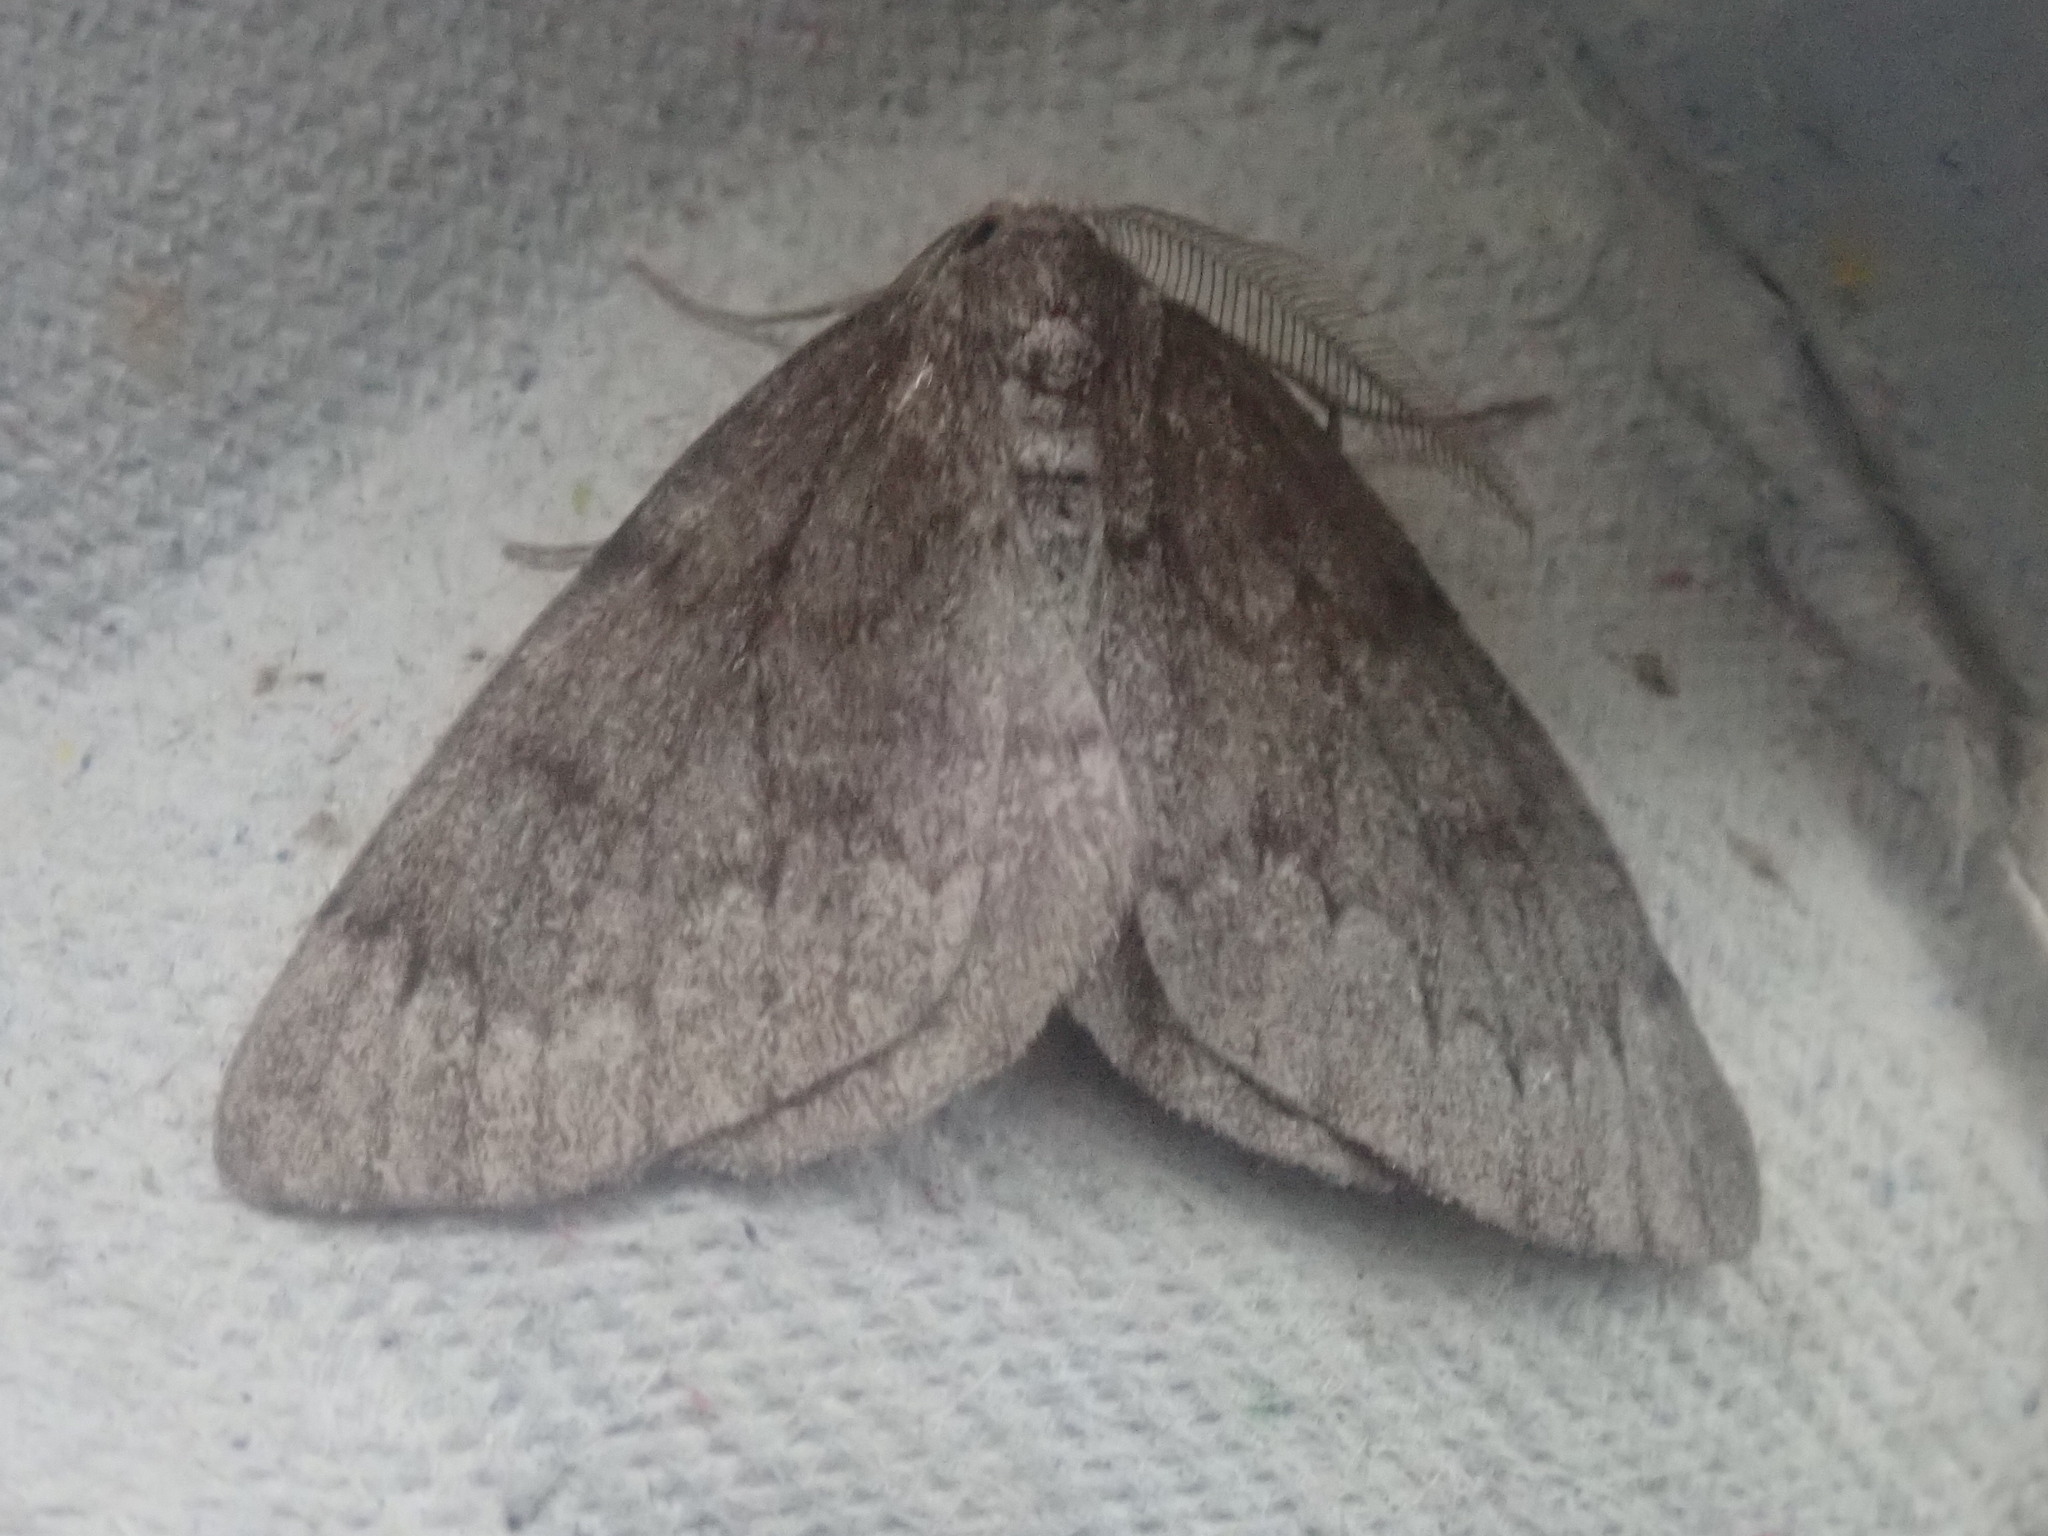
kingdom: Animalia
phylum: Arthropoda
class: Insecta
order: Lepidoptera
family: Geometridae
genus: Nepytia
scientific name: Nepytia canosaria
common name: False hemlock looper
